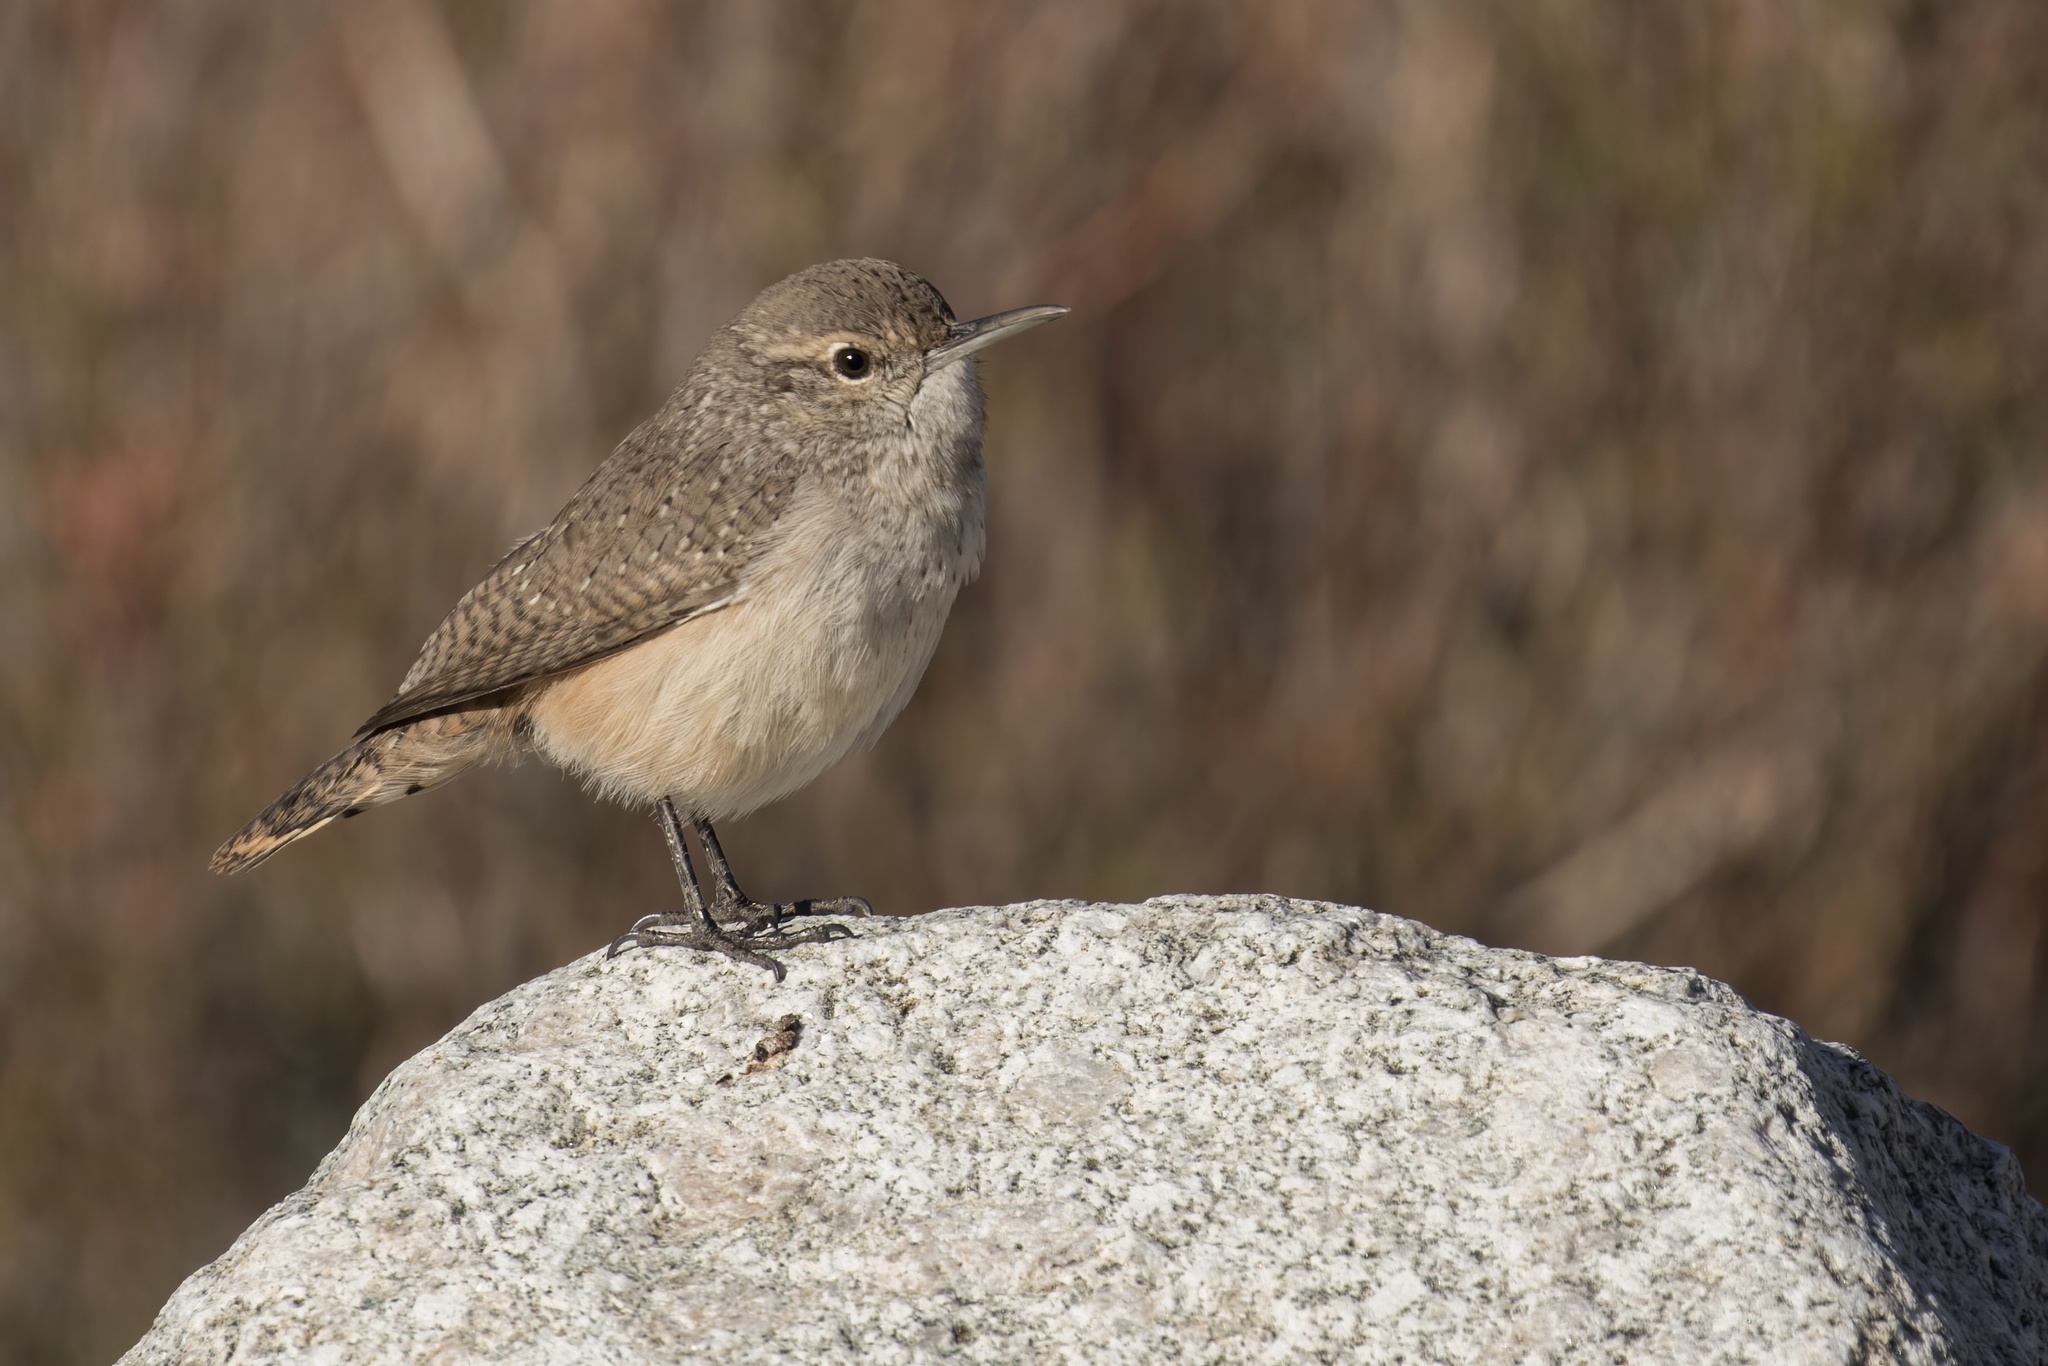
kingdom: Animalia
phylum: Chordata
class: Aves
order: Passeriformes
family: Troglodytidae
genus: Salpinctes
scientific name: Salpinctes obsoletus
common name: Rock wren
